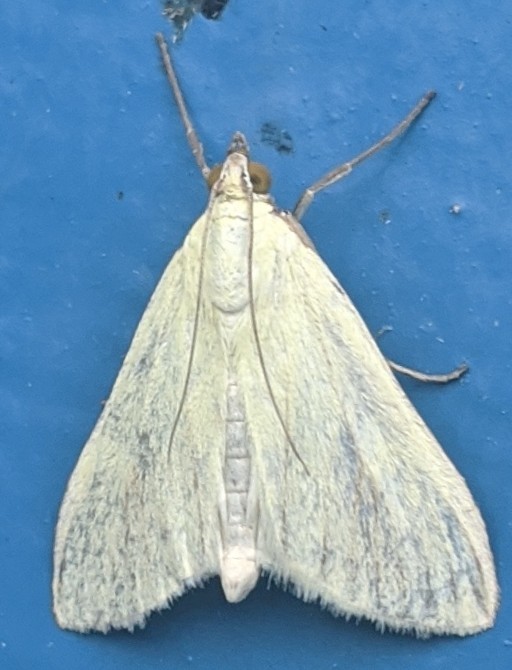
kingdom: Animalia
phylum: Arthropoda
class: Insecta
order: Lepidoptera
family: Crambidae
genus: Sitochroa
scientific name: Sitochroa palealis
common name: Greenish-yellow sitochroa moth
